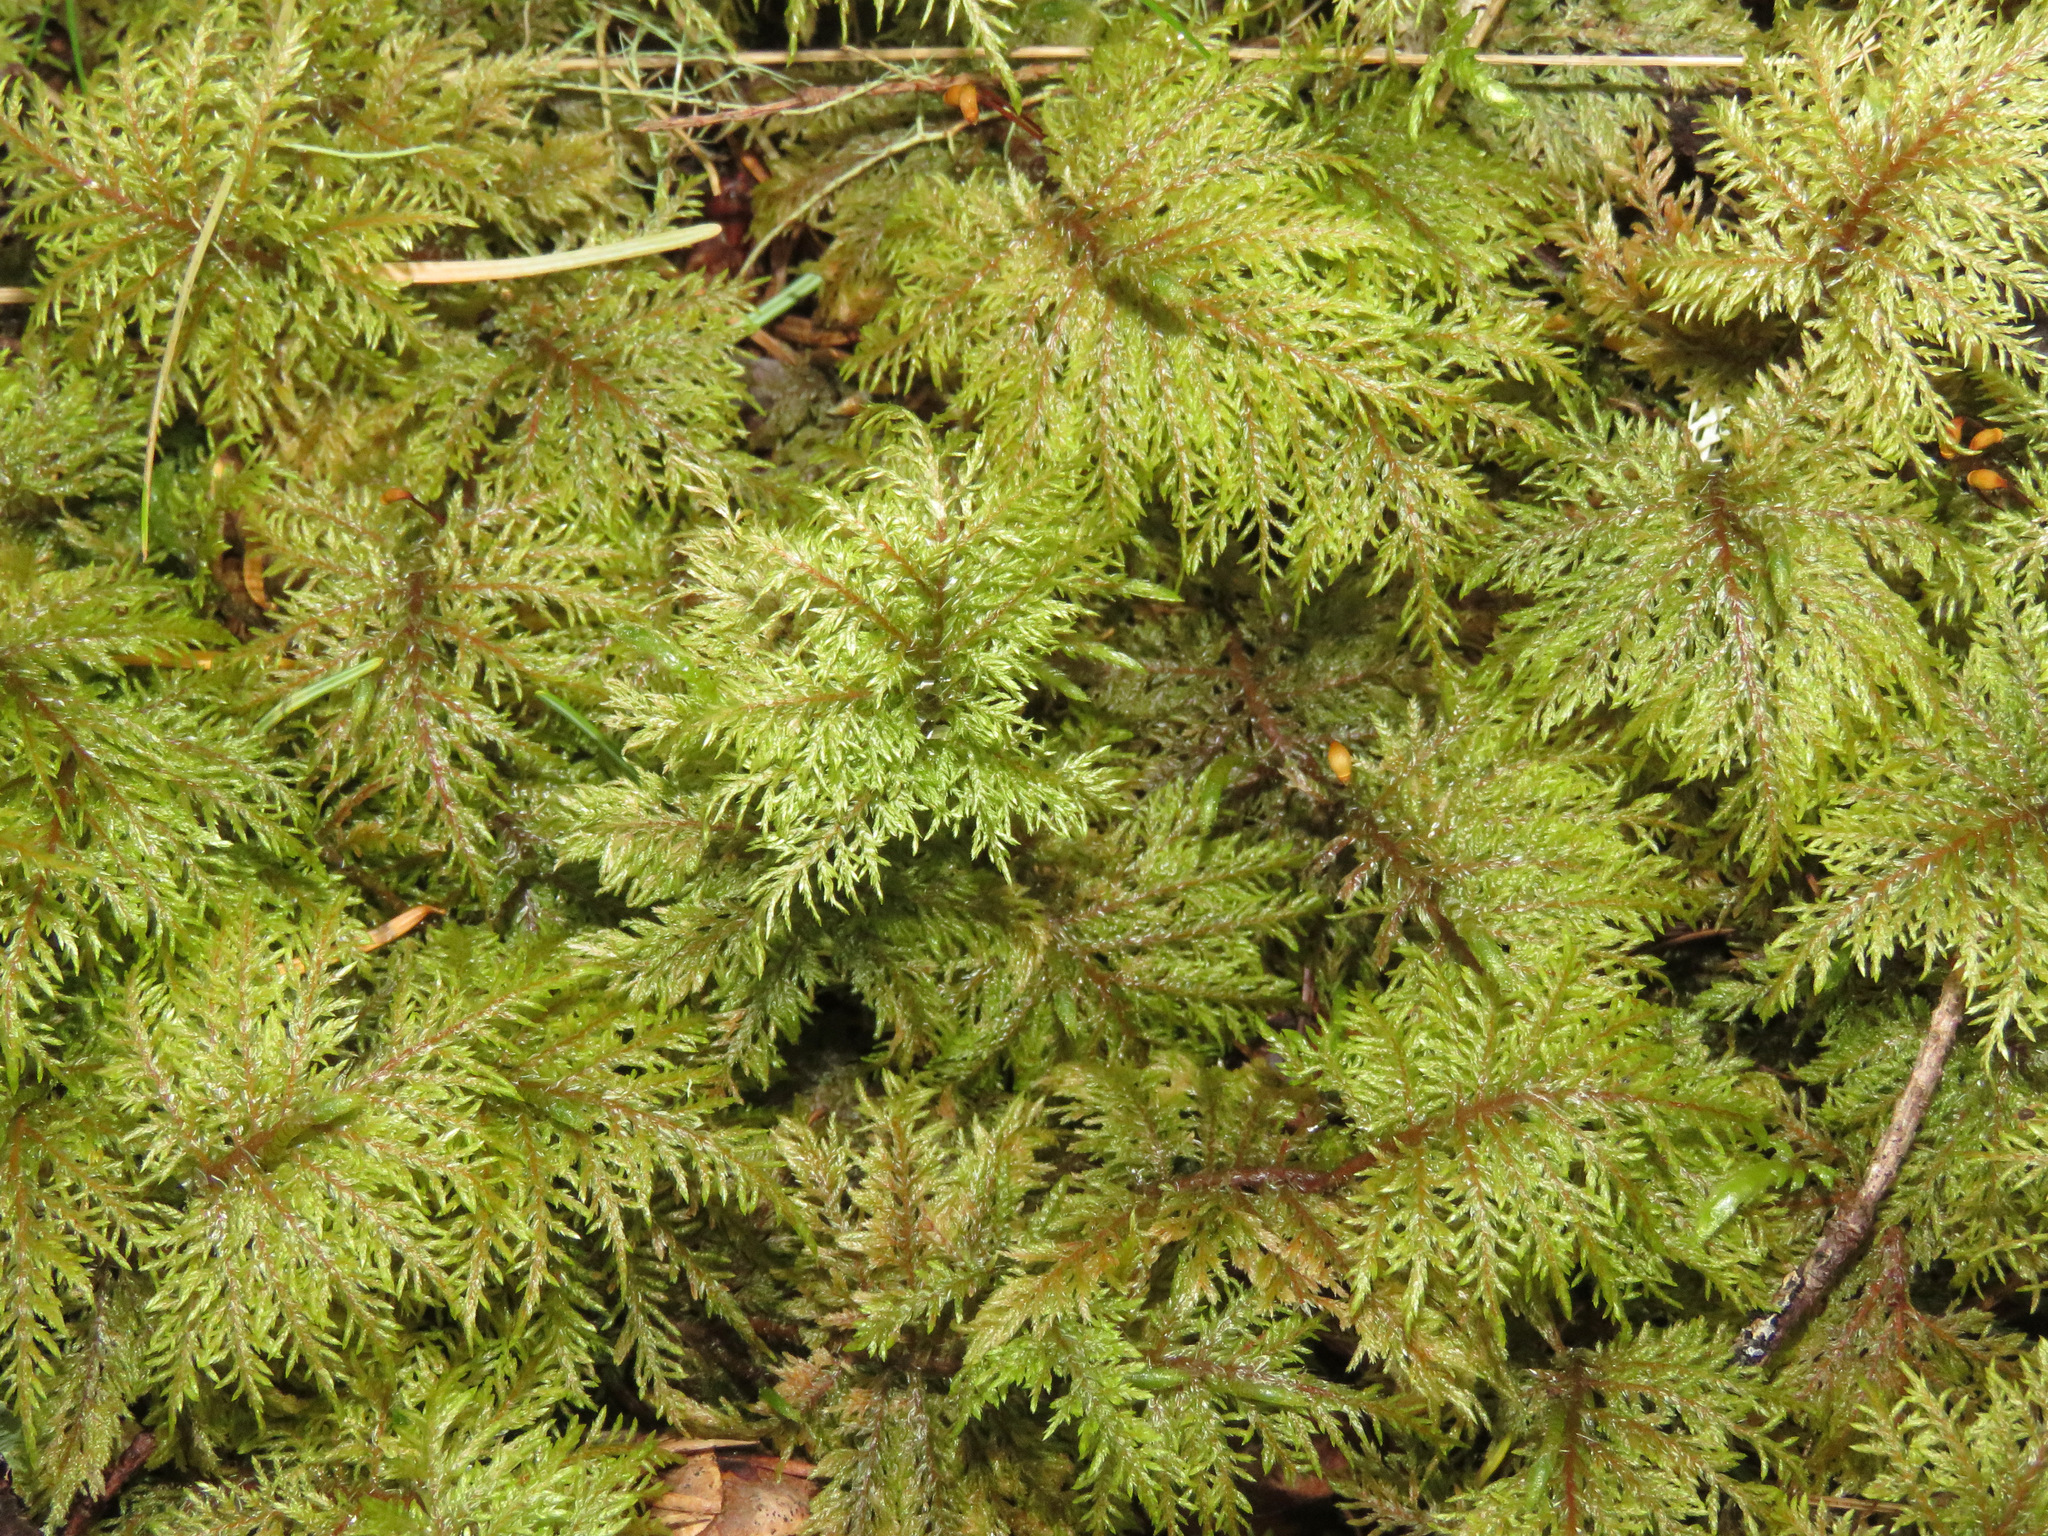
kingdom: Plantae
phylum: Bryophyta
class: Bryopsida
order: Hypnales
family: Hylocomiaceae
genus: Hylocomium
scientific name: Hylocomium splendens
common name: Stairstep moss
